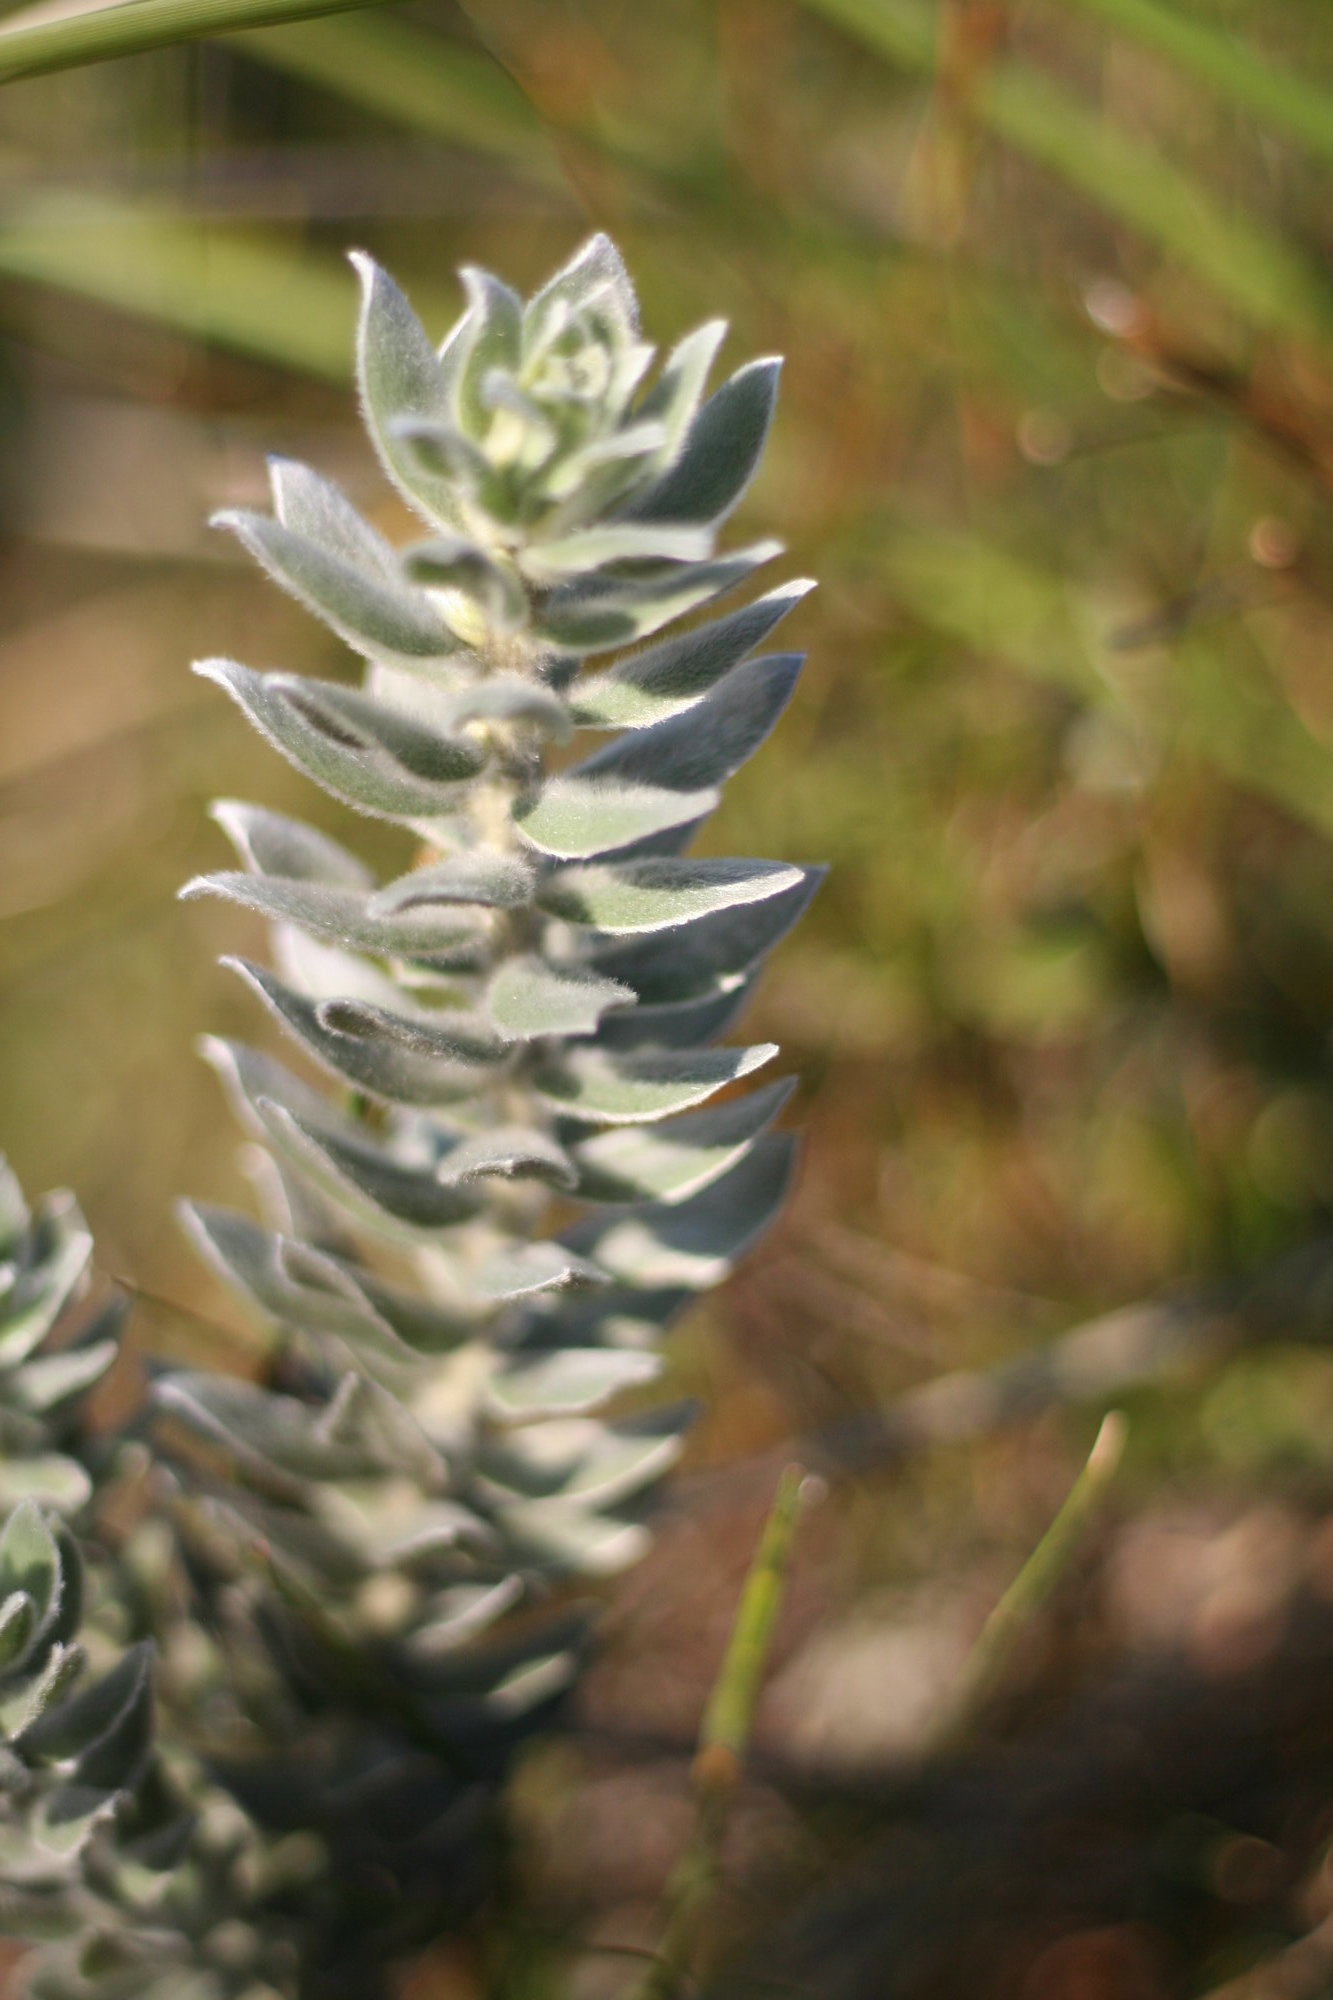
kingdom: Plantae
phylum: Tracheophyta
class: Magnoliopsida
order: Fabales
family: Fabaceae
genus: Xiphotheca
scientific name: Xiphotheca fruticosa
